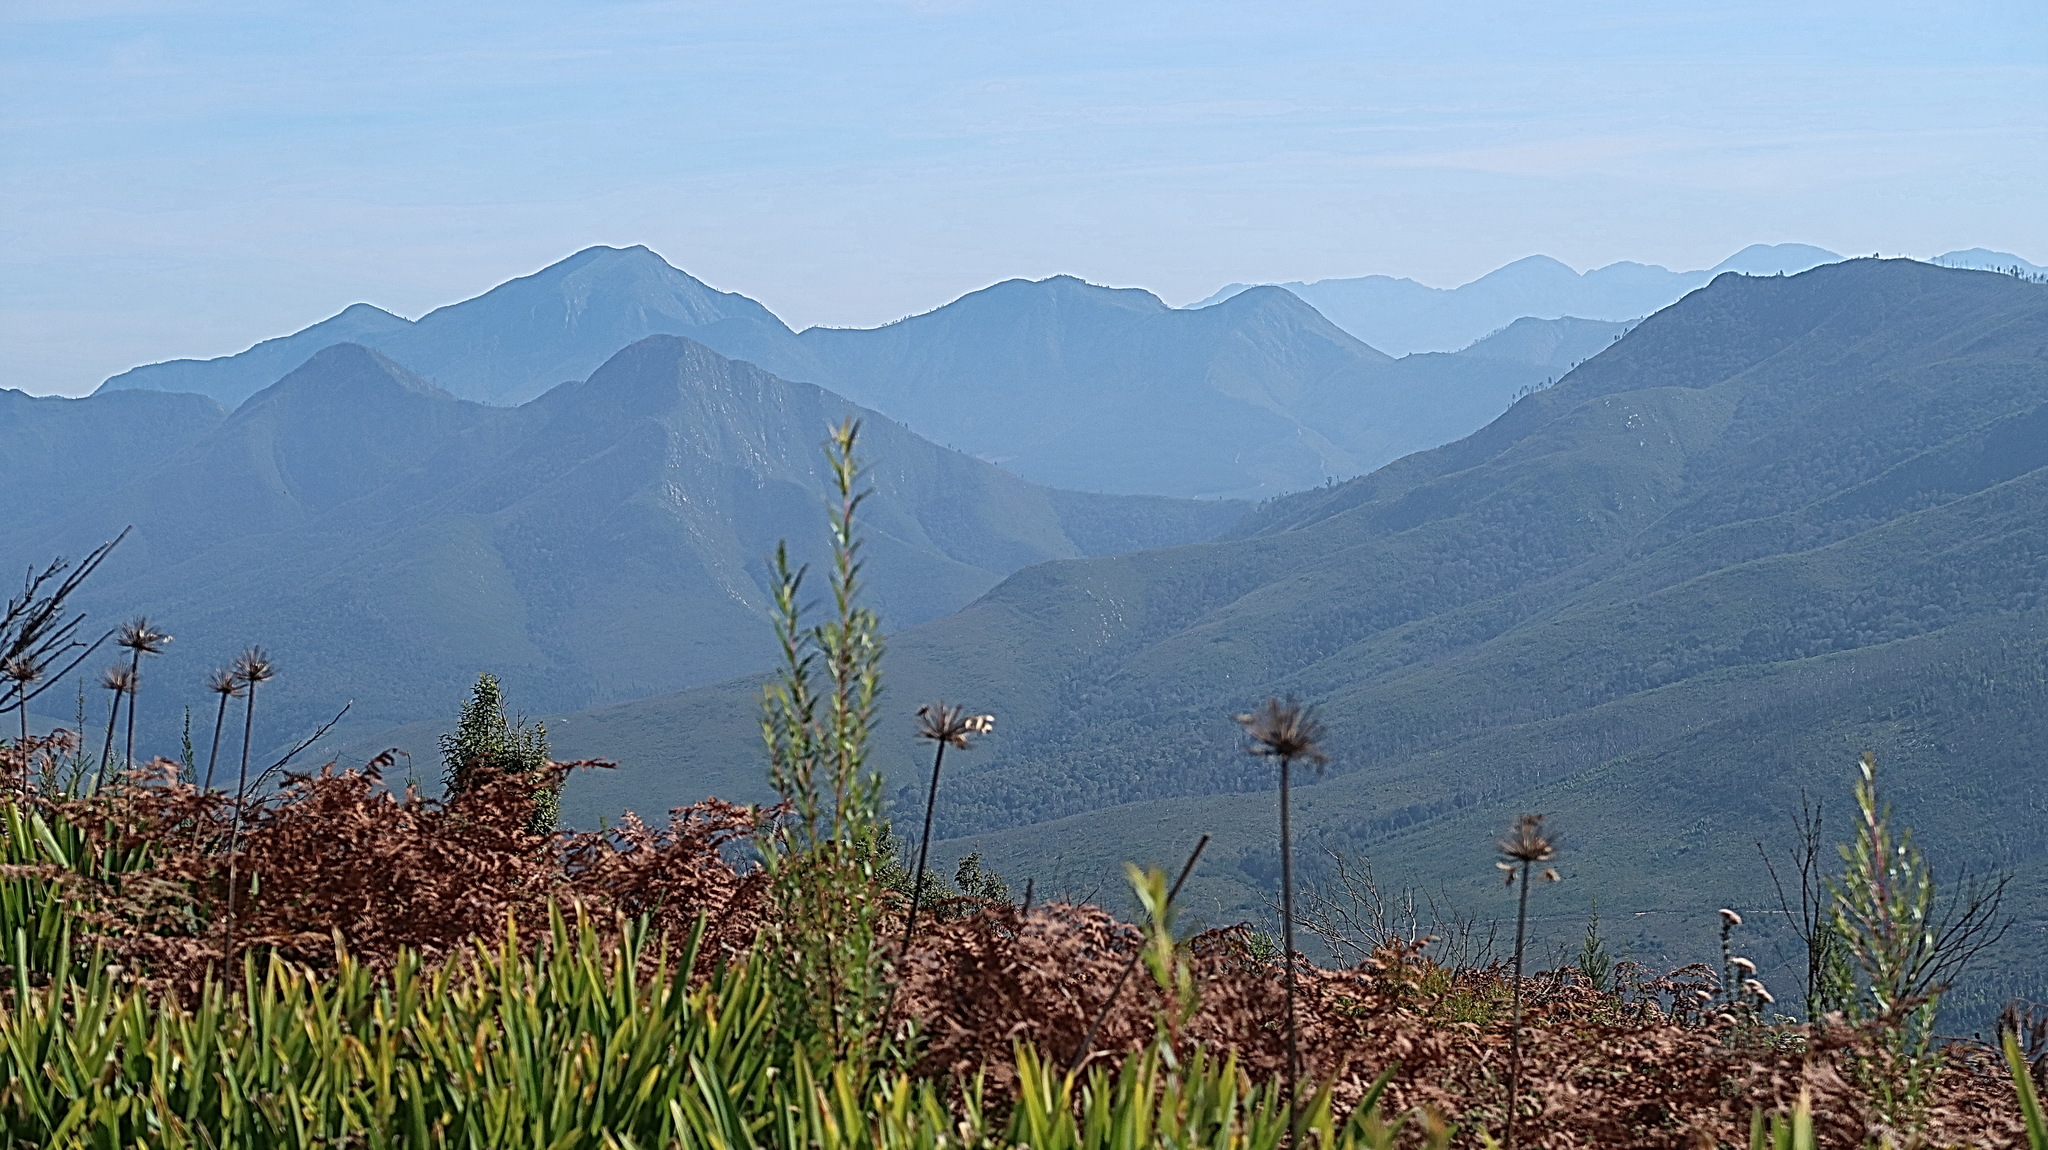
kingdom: Plantae
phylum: Tracheophyta
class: Liliopsida
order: Asparagales
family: Amaryllidaceae
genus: Agapanthus
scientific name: Agapanthus praecox
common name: African-lily
